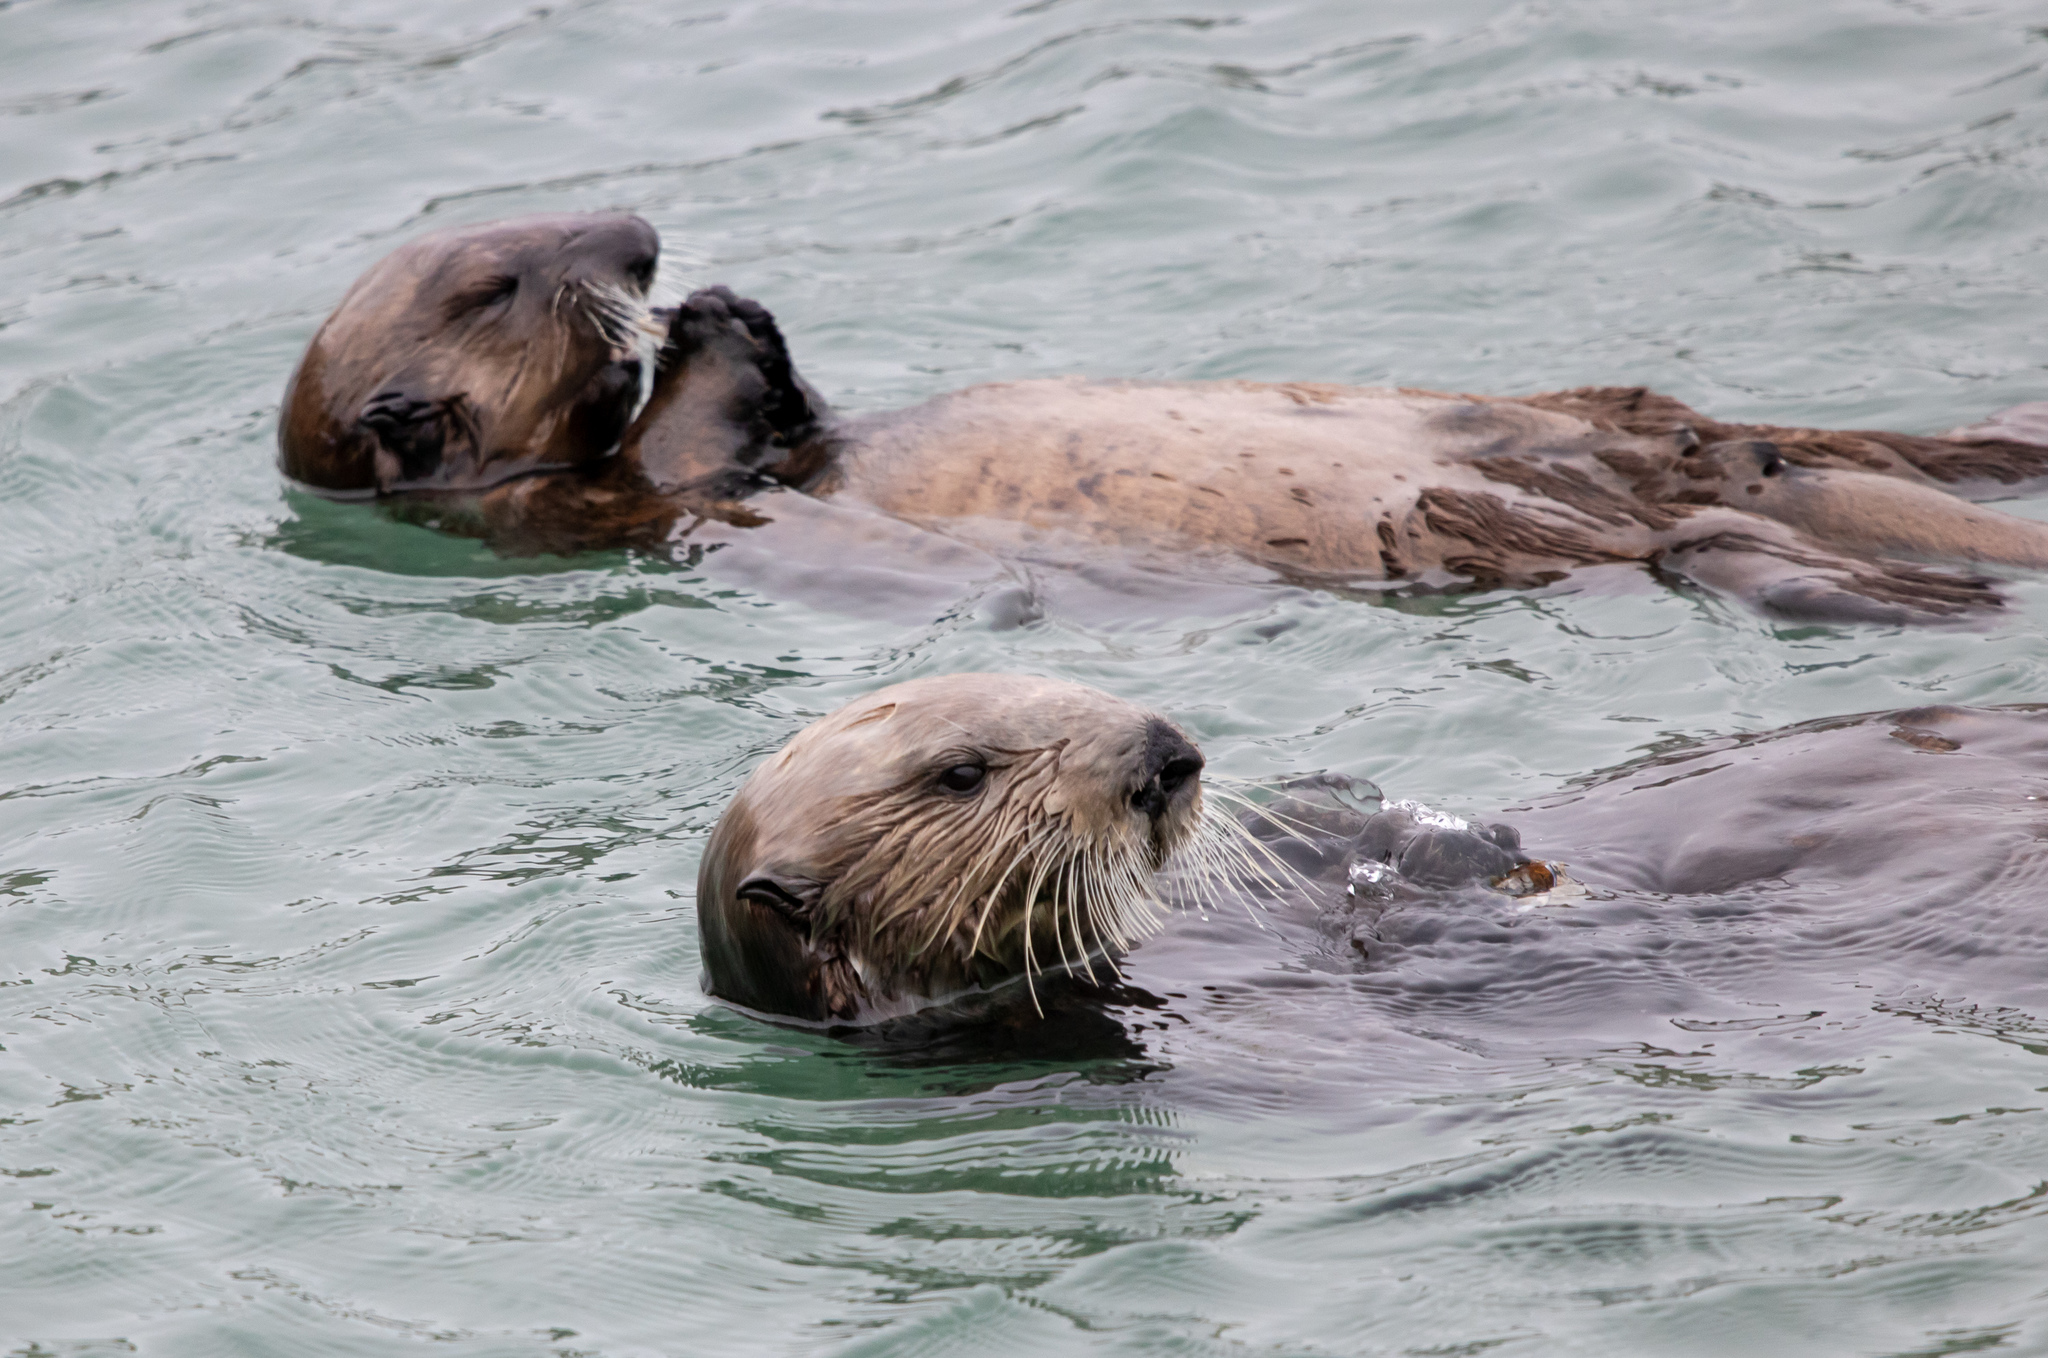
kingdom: Animalia
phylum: Chordata
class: Mammalia
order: Carnivora
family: Mustelidae
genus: Enhydra
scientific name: Enhydra lutris
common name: Sea otter
